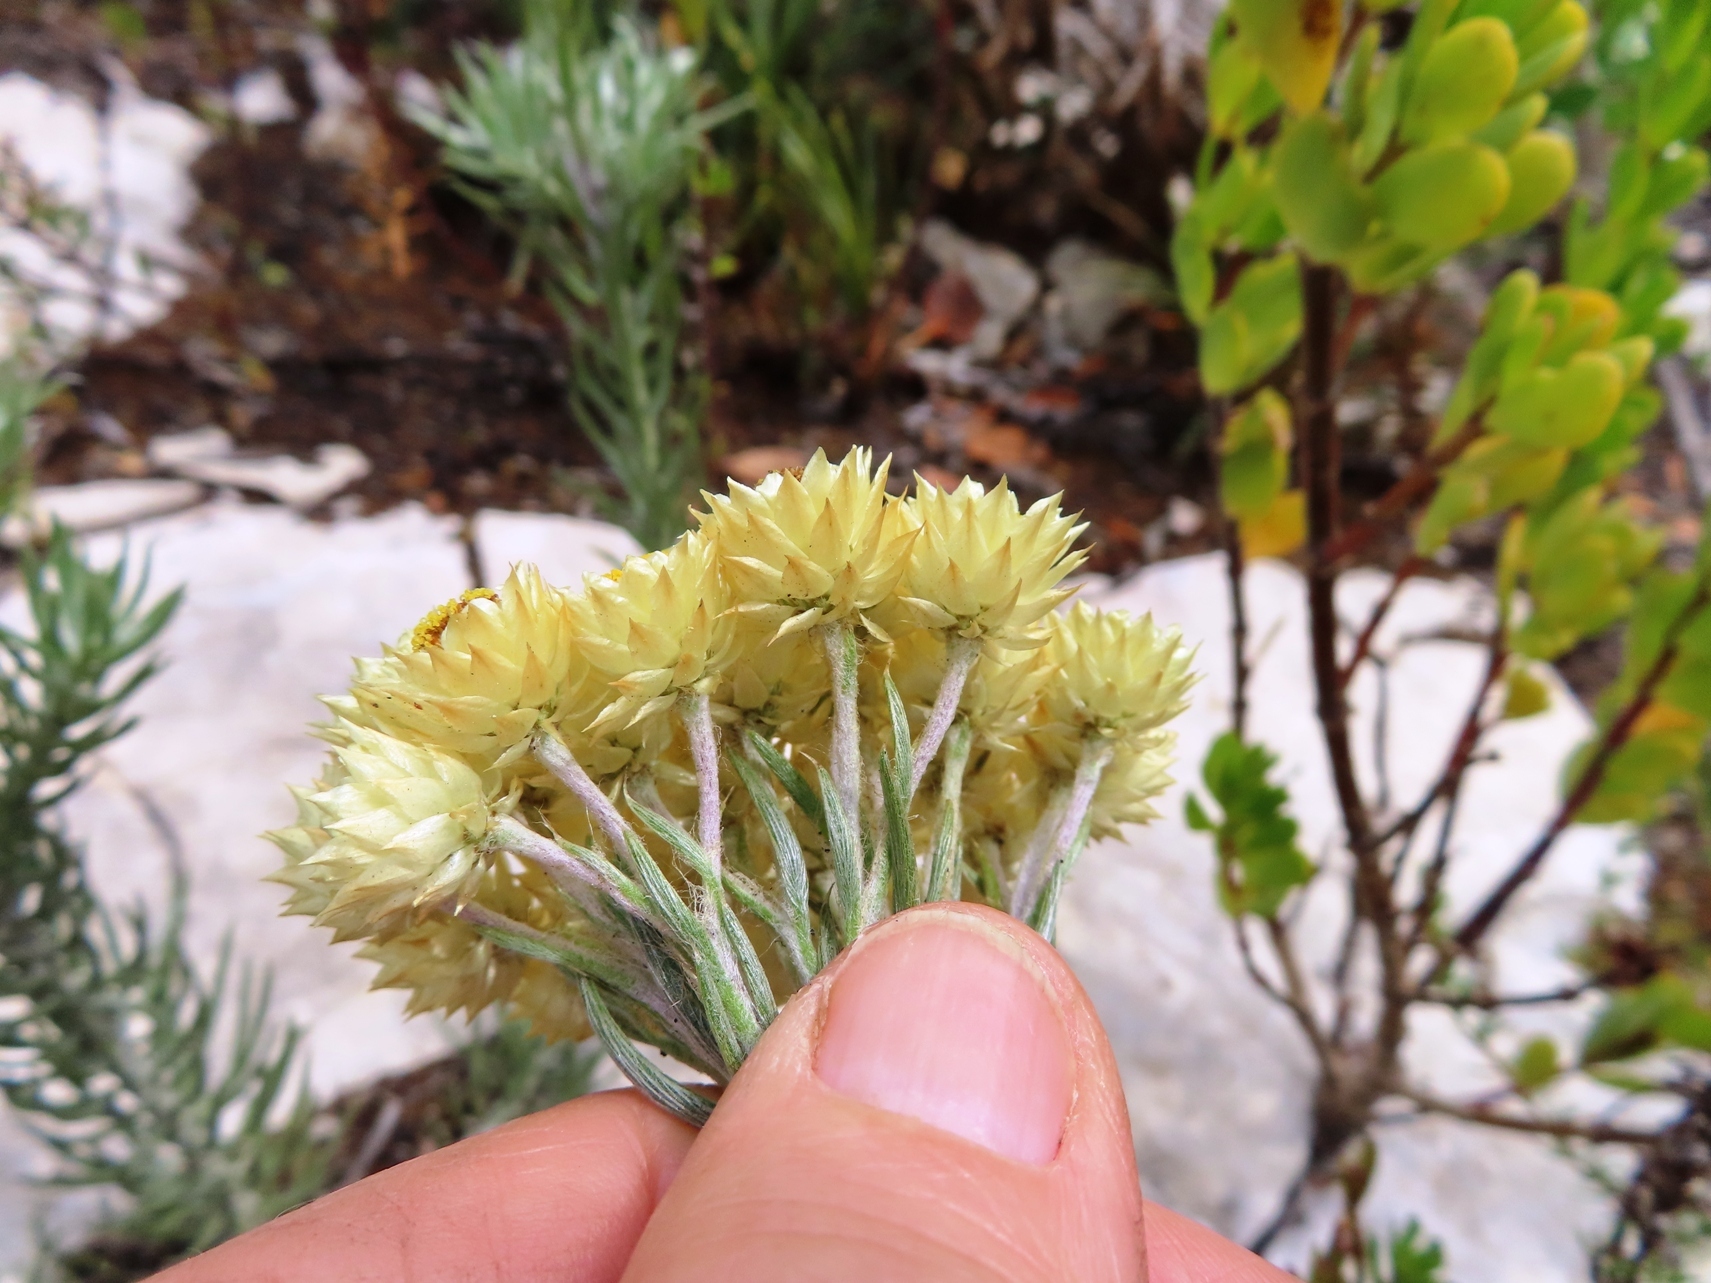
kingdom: Plantae
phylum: Tracheophyta
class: Magnoliopsida
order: Asterales
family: Asteraceae
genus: Achyranthemum
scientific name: Achyranthemum mucronatum
